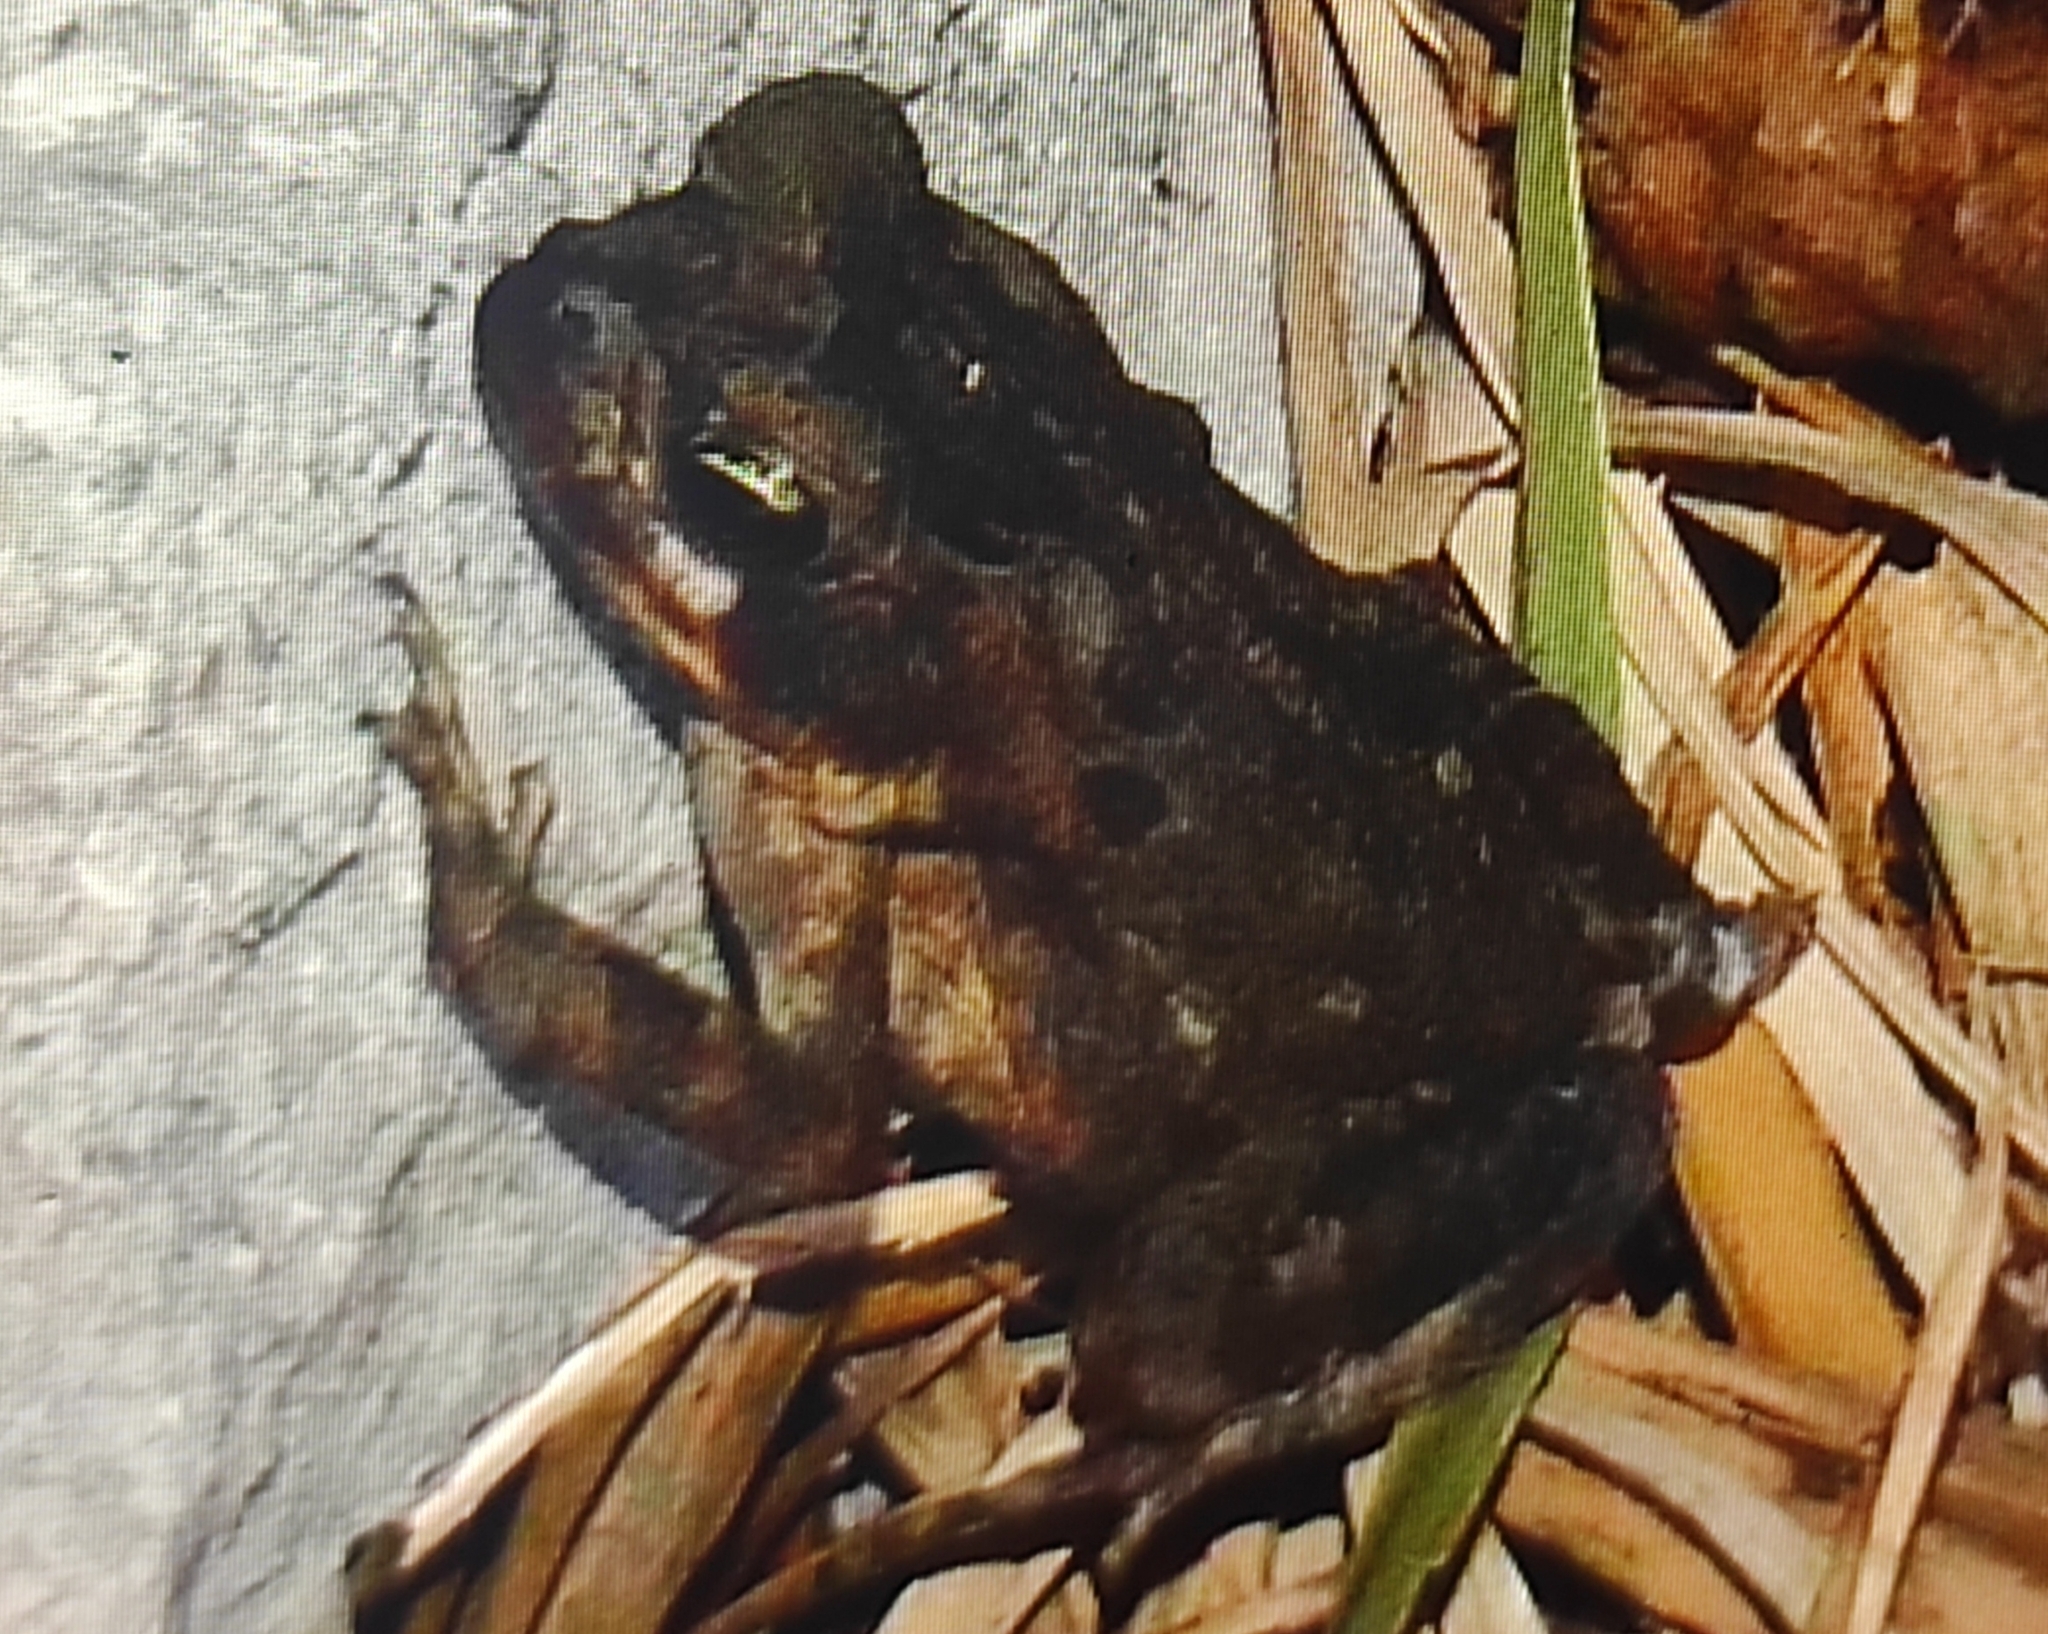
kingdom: Animalia
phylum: Chordata
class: Amphibia
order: Anura
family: Bufonidae
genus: Rhinella
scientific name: Rhinella horribilis
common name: Mesoamerican cane toad
